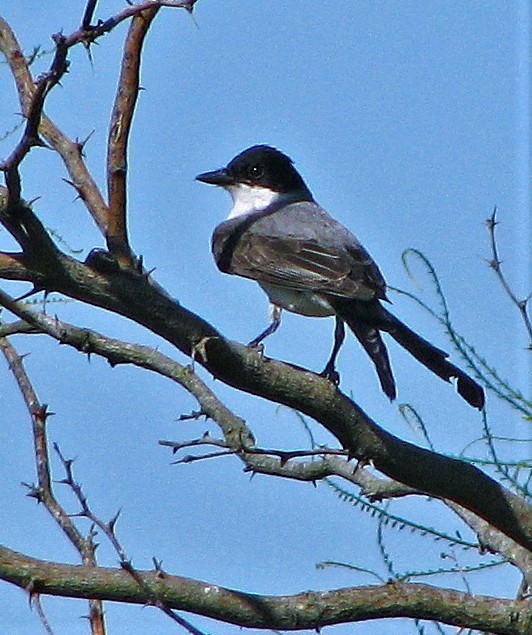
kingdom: Animalia
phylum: Chordata
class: Aves
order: Passeriformes
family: Tyrannidae
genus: Tyrannus
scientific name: Tyrannus savana
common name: Fork-tailed flycatcher
